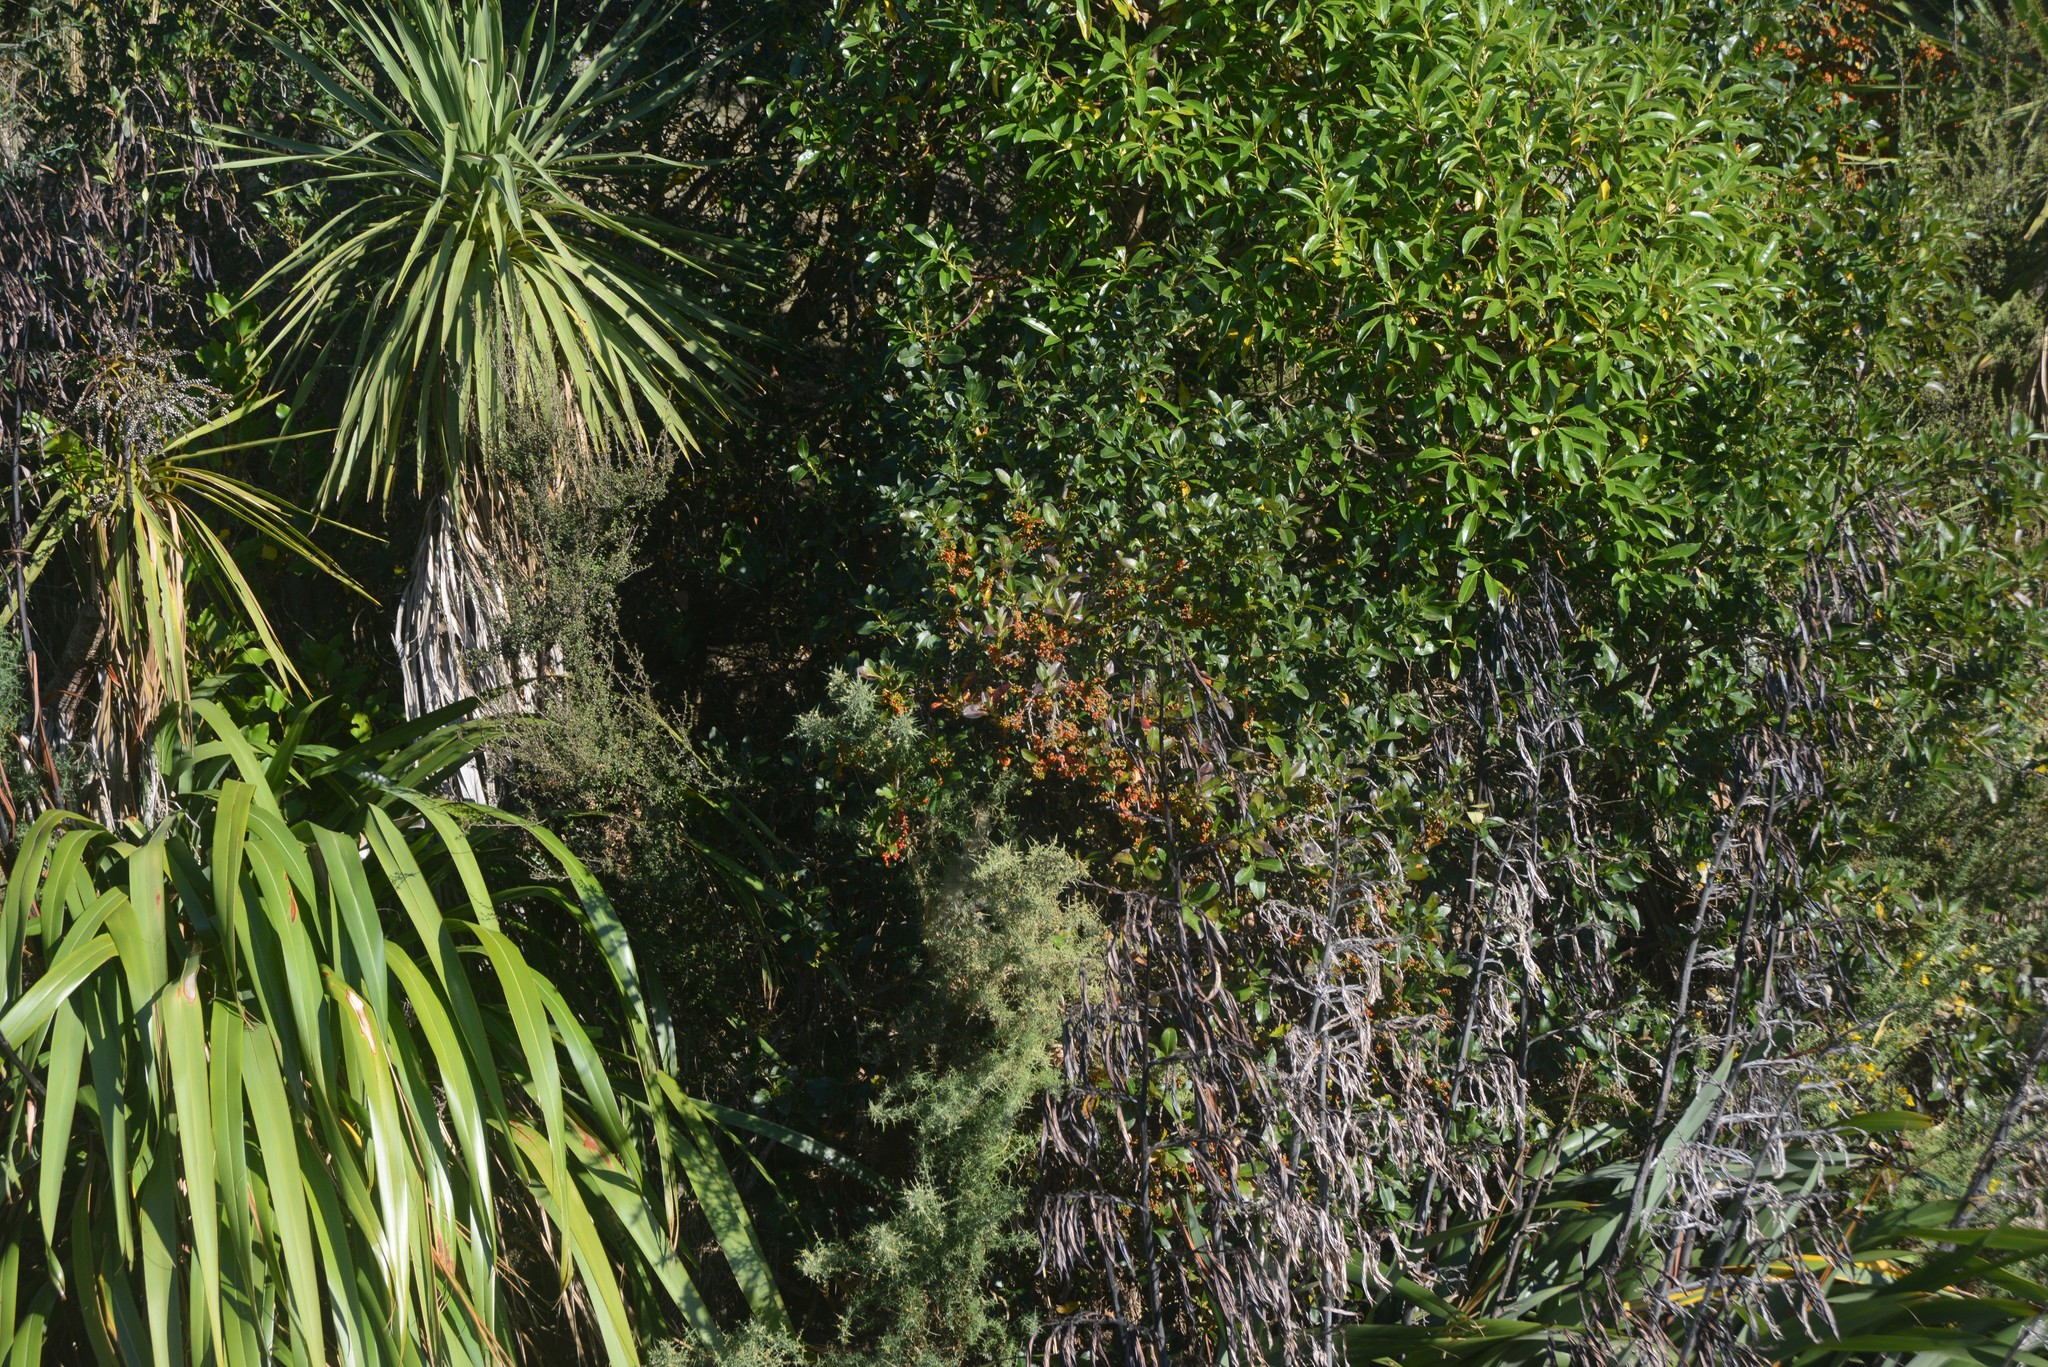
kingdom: Plantae
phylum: Tracheophyta
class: Magnoliopsida
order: Gentianales
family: Rubiaceae
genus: Coprosma
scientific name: Coprosma robusta
